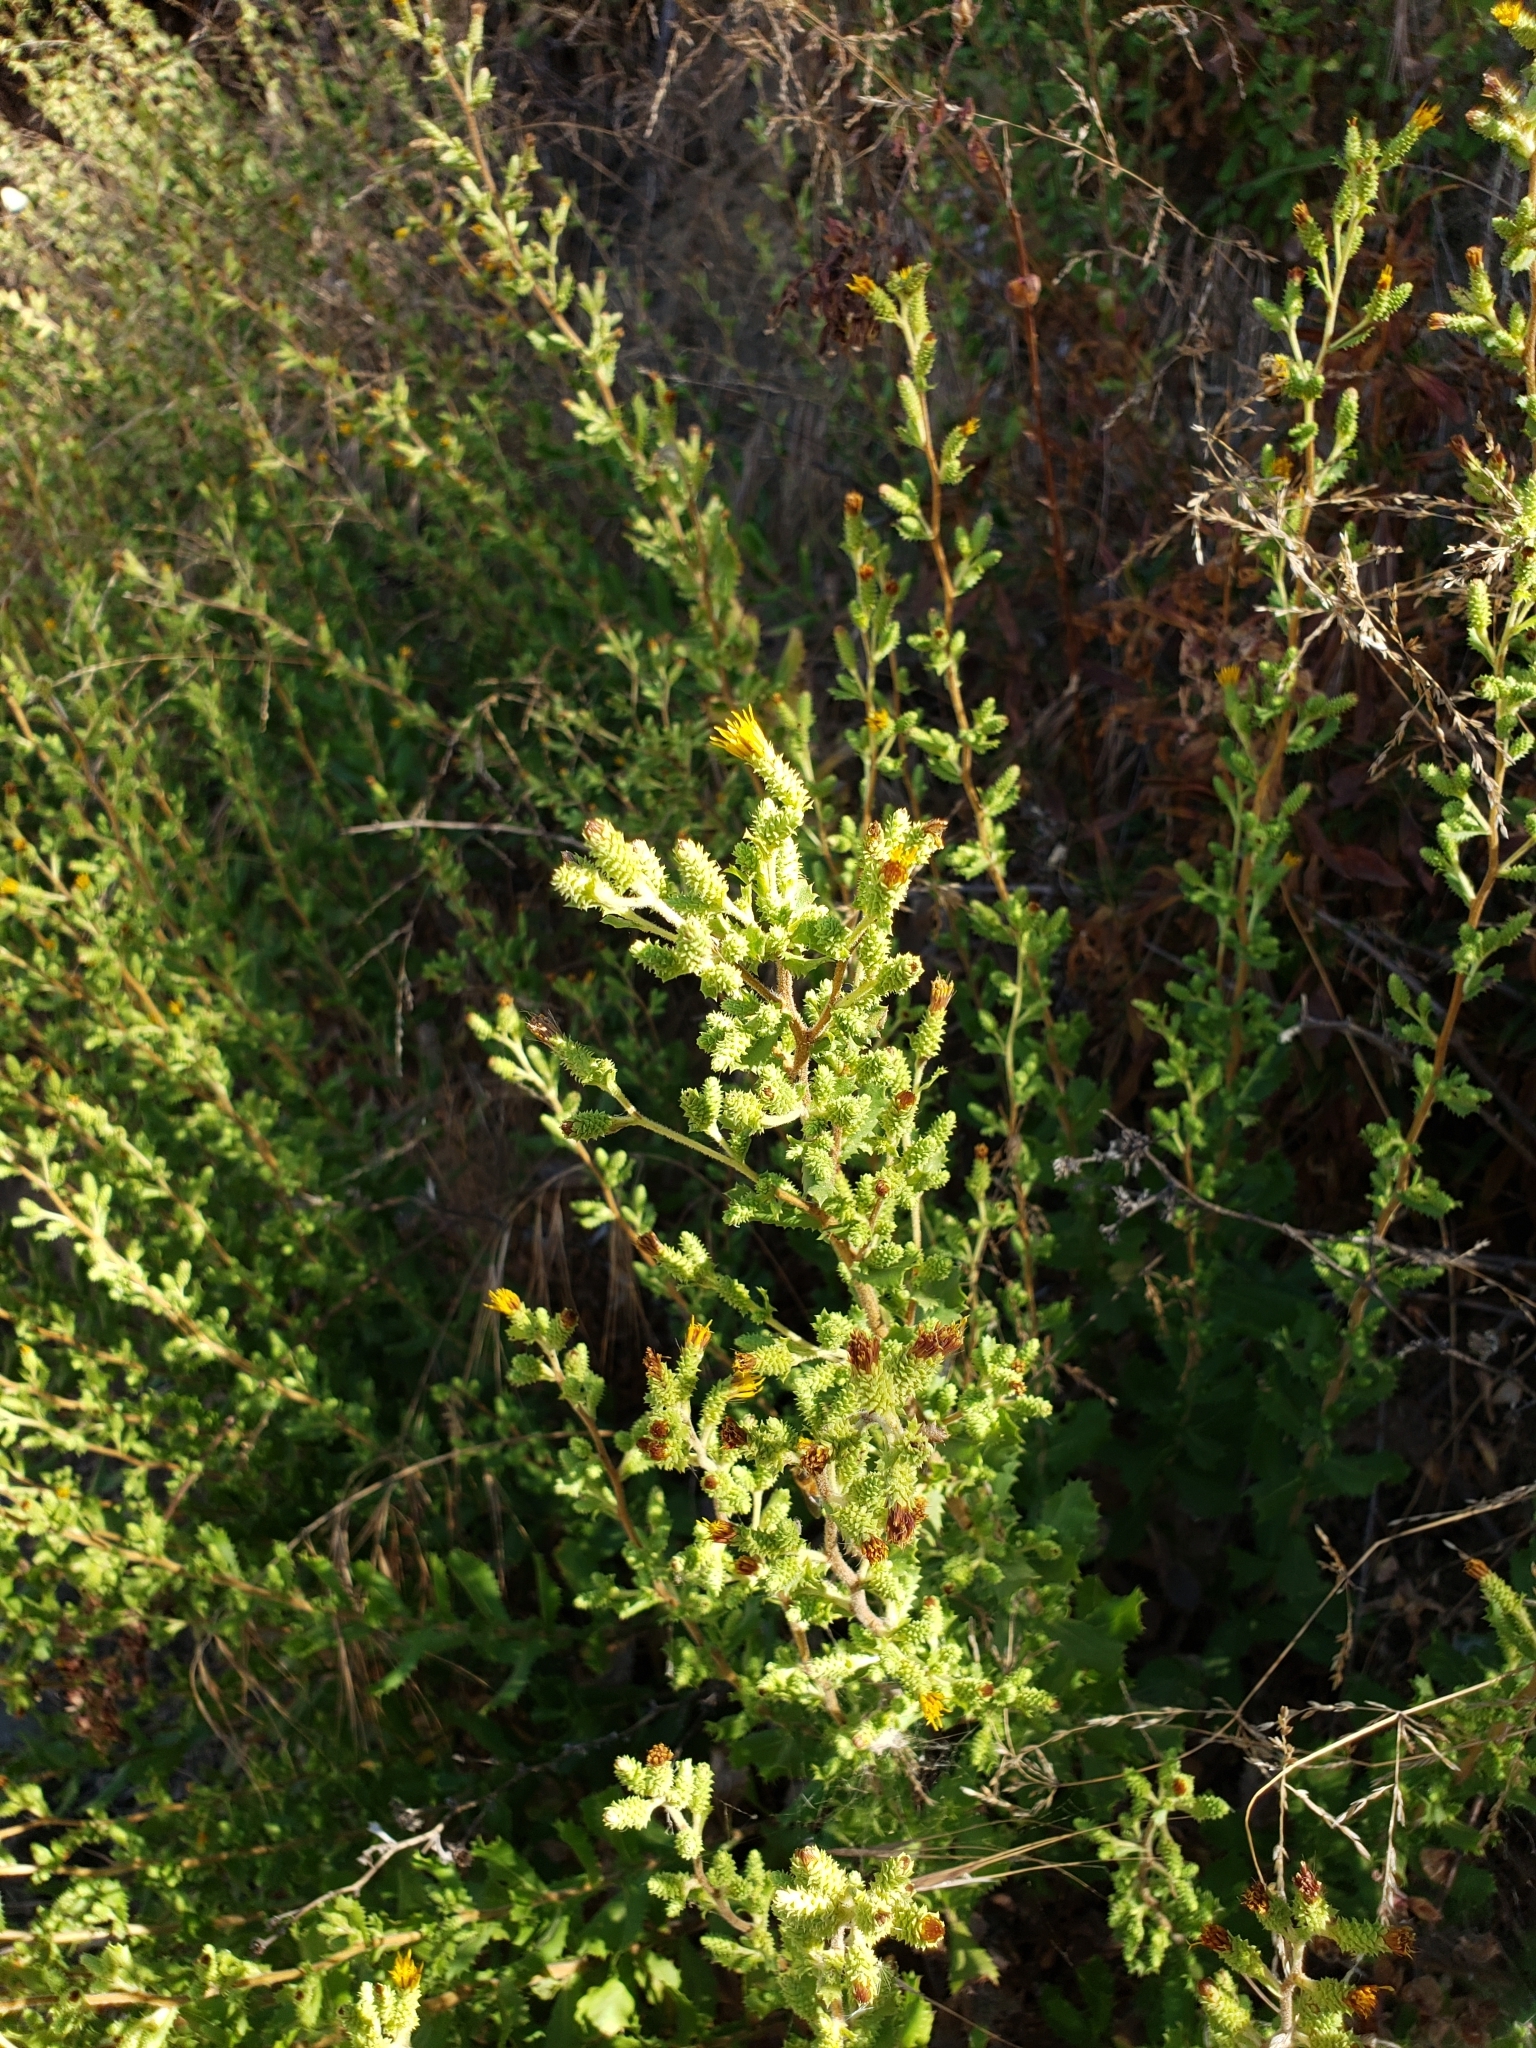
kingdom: Plantae
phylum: Tracheophyta
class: Magnoliopsida
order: Asterales
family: Asteraceae
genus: Hazardia
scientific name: Hazardia squarrosa
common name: Saw-tooth goldenbush
